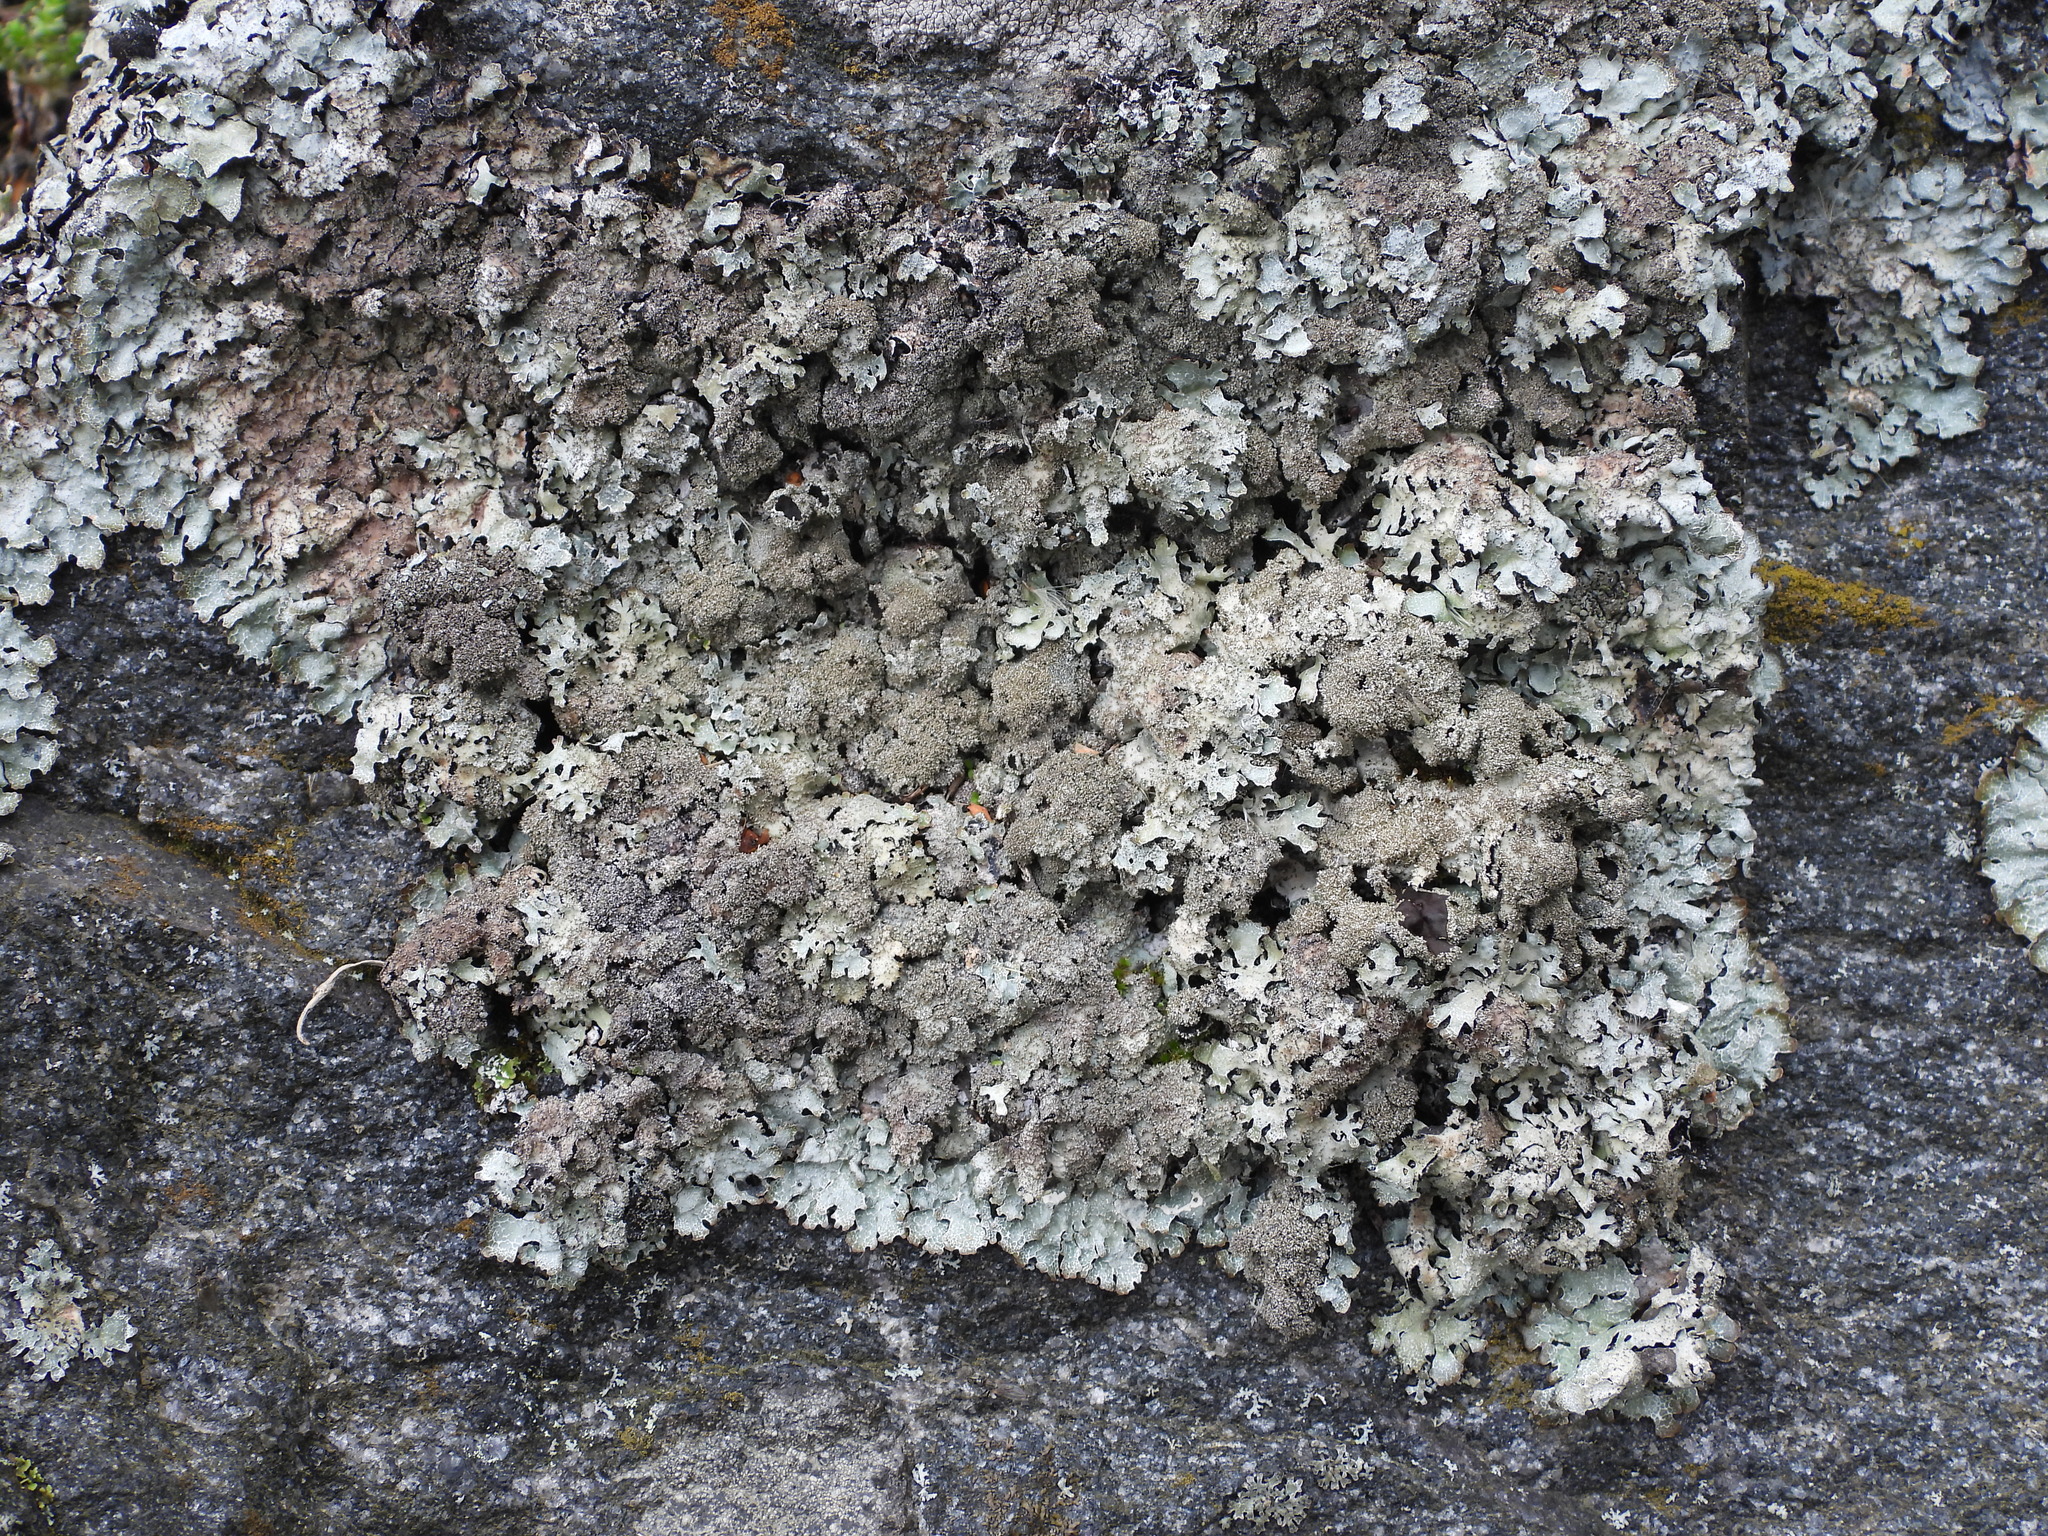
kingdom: Fungi
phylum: Ascomycota
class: Lecanoromycetes
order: Lecanorales
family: Parmeliaceae
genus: Parmelia
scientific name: Parmelia saxatilis
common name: Salted shield lichen
